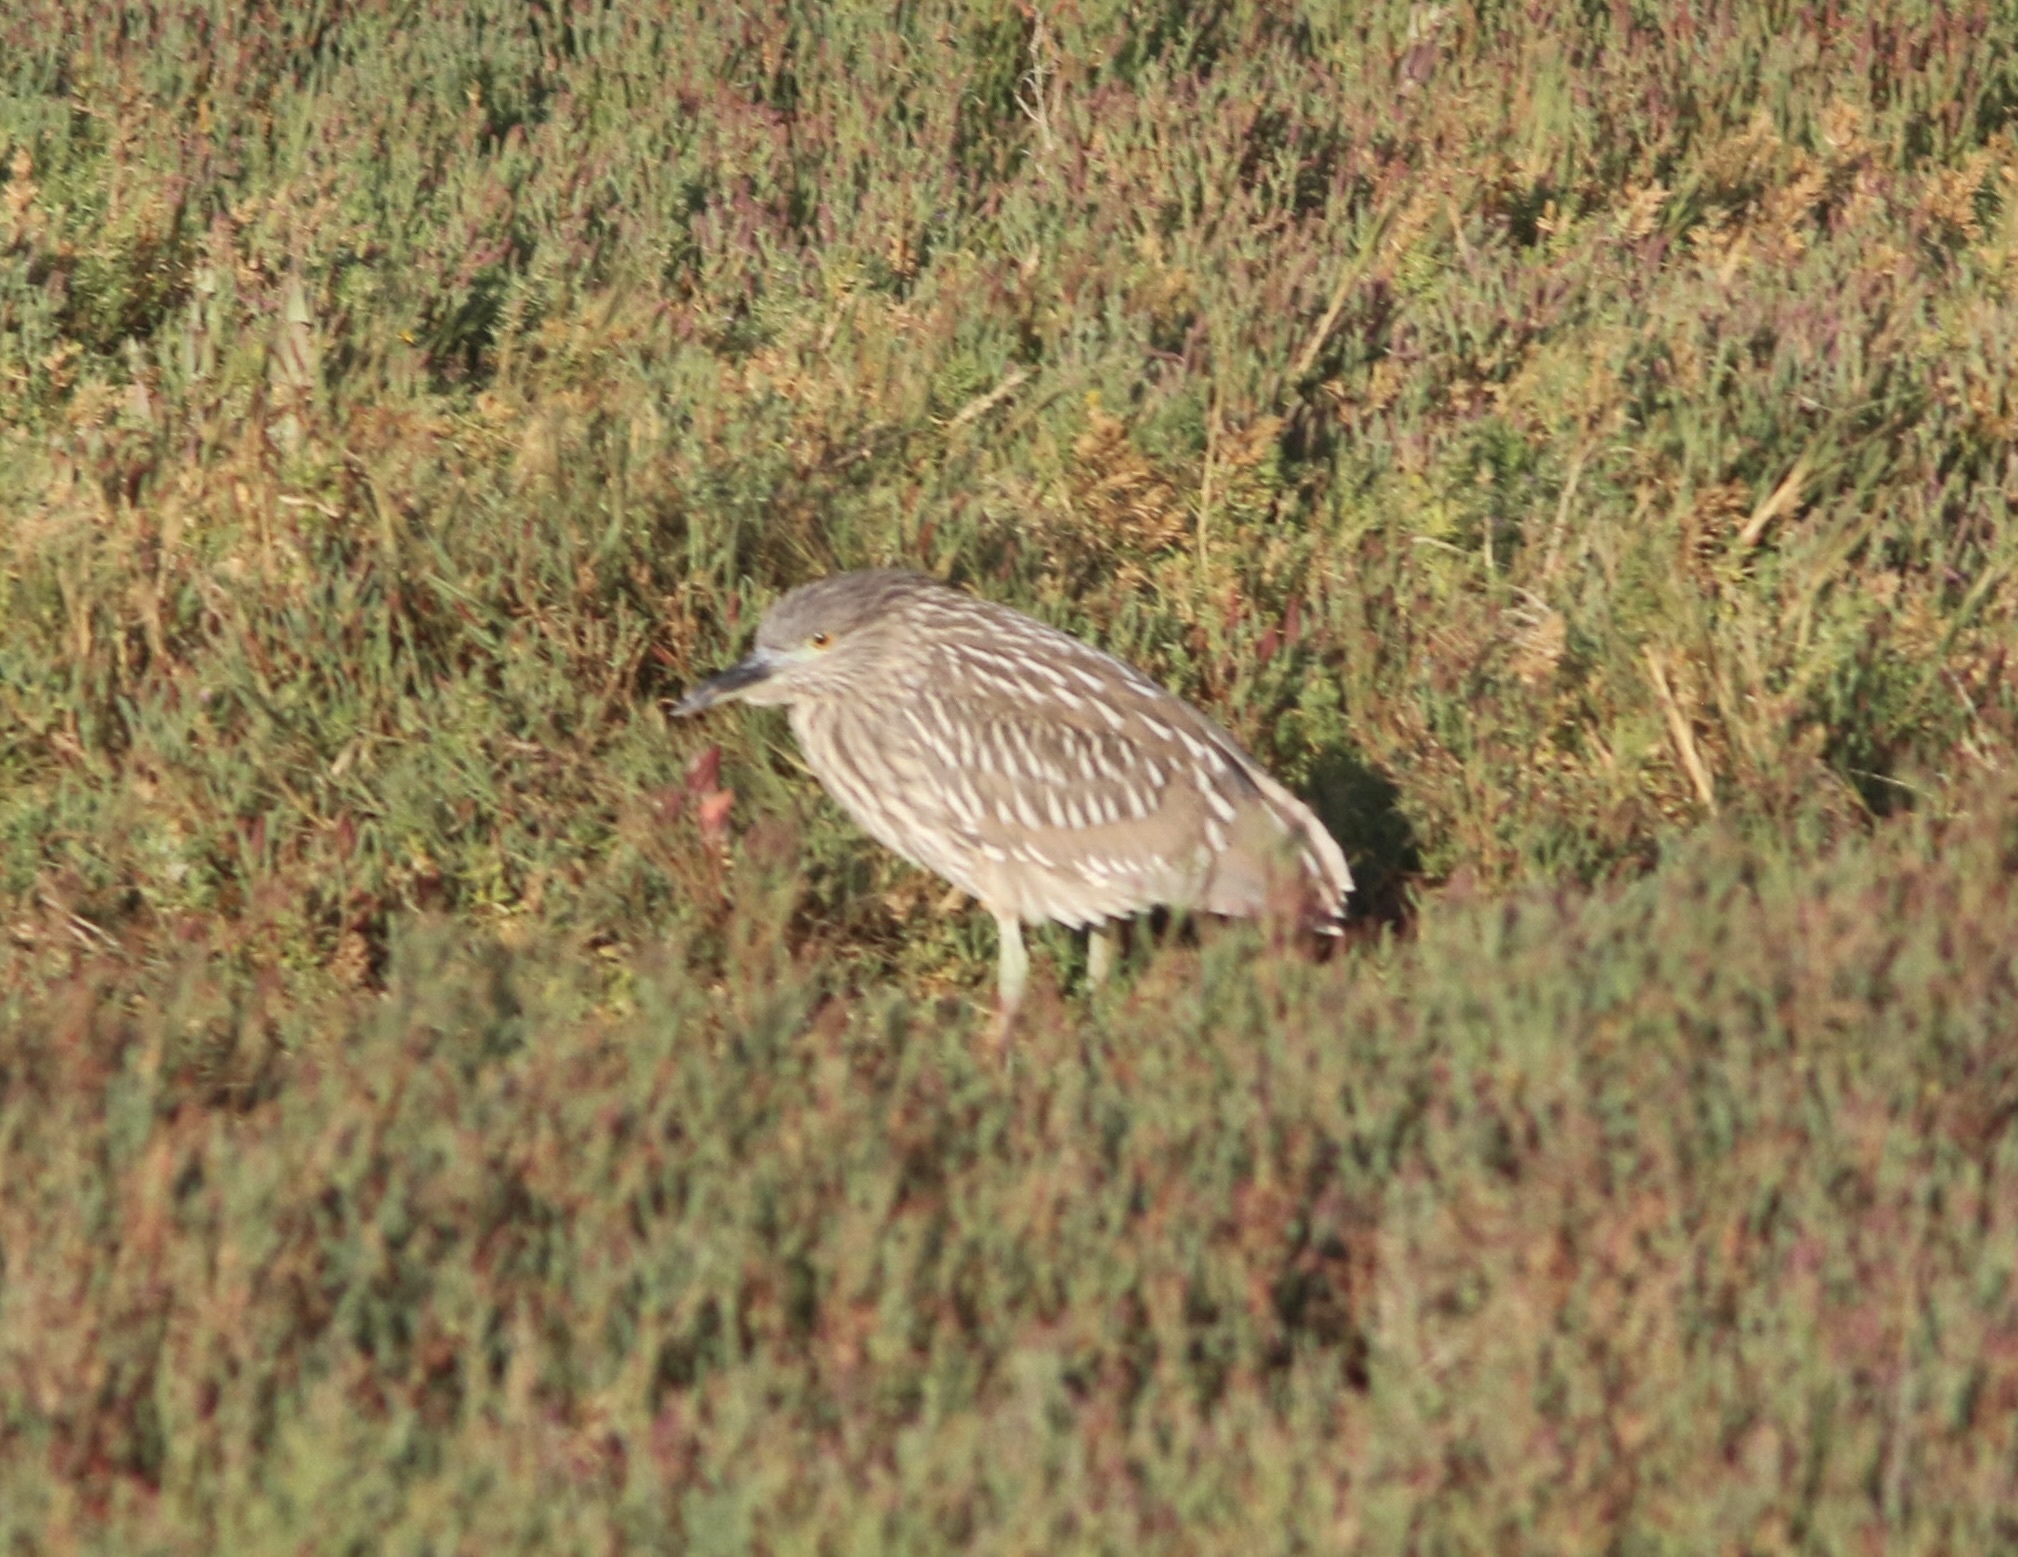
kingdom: Animalia
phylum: Chordata
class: Aves
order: Pelecaniformes
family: Ardeidae
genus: Nycticorax
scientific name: Nycticorax nycticorax
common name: Black-crowned night heron
